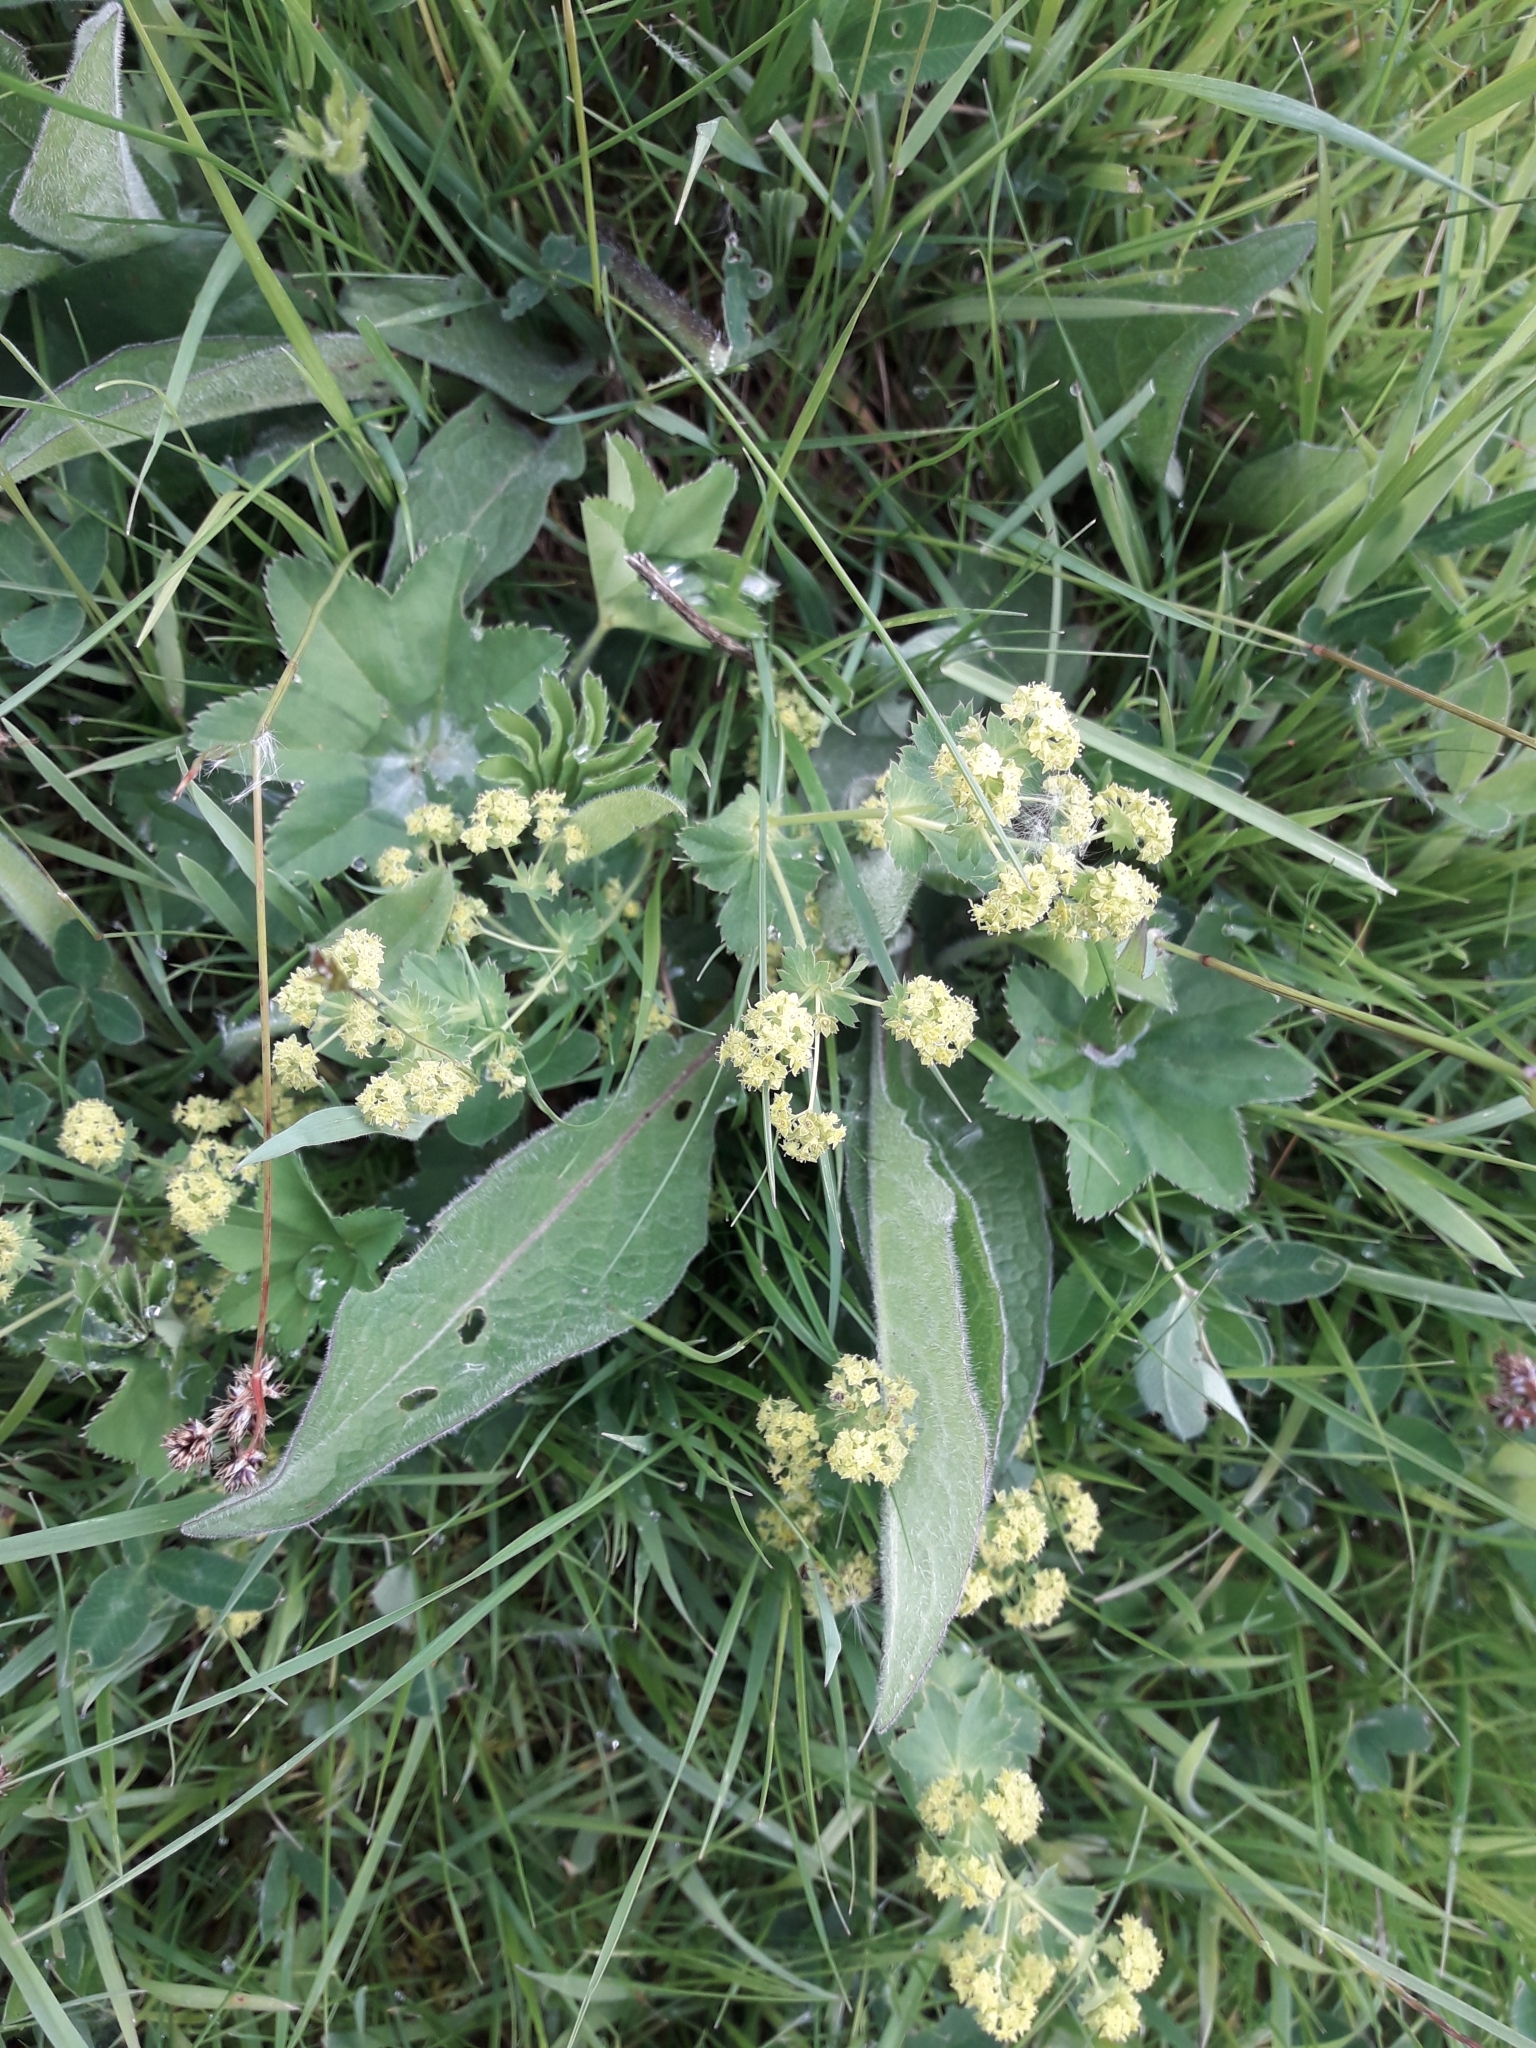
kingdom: Plantae
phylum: Tracheophyta
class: Magnoliopsida
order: Rosales
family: Rosaceae
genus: Alchemilla
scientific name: Alchemilla xanthochlora
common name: Intermediate lady's-mantle
